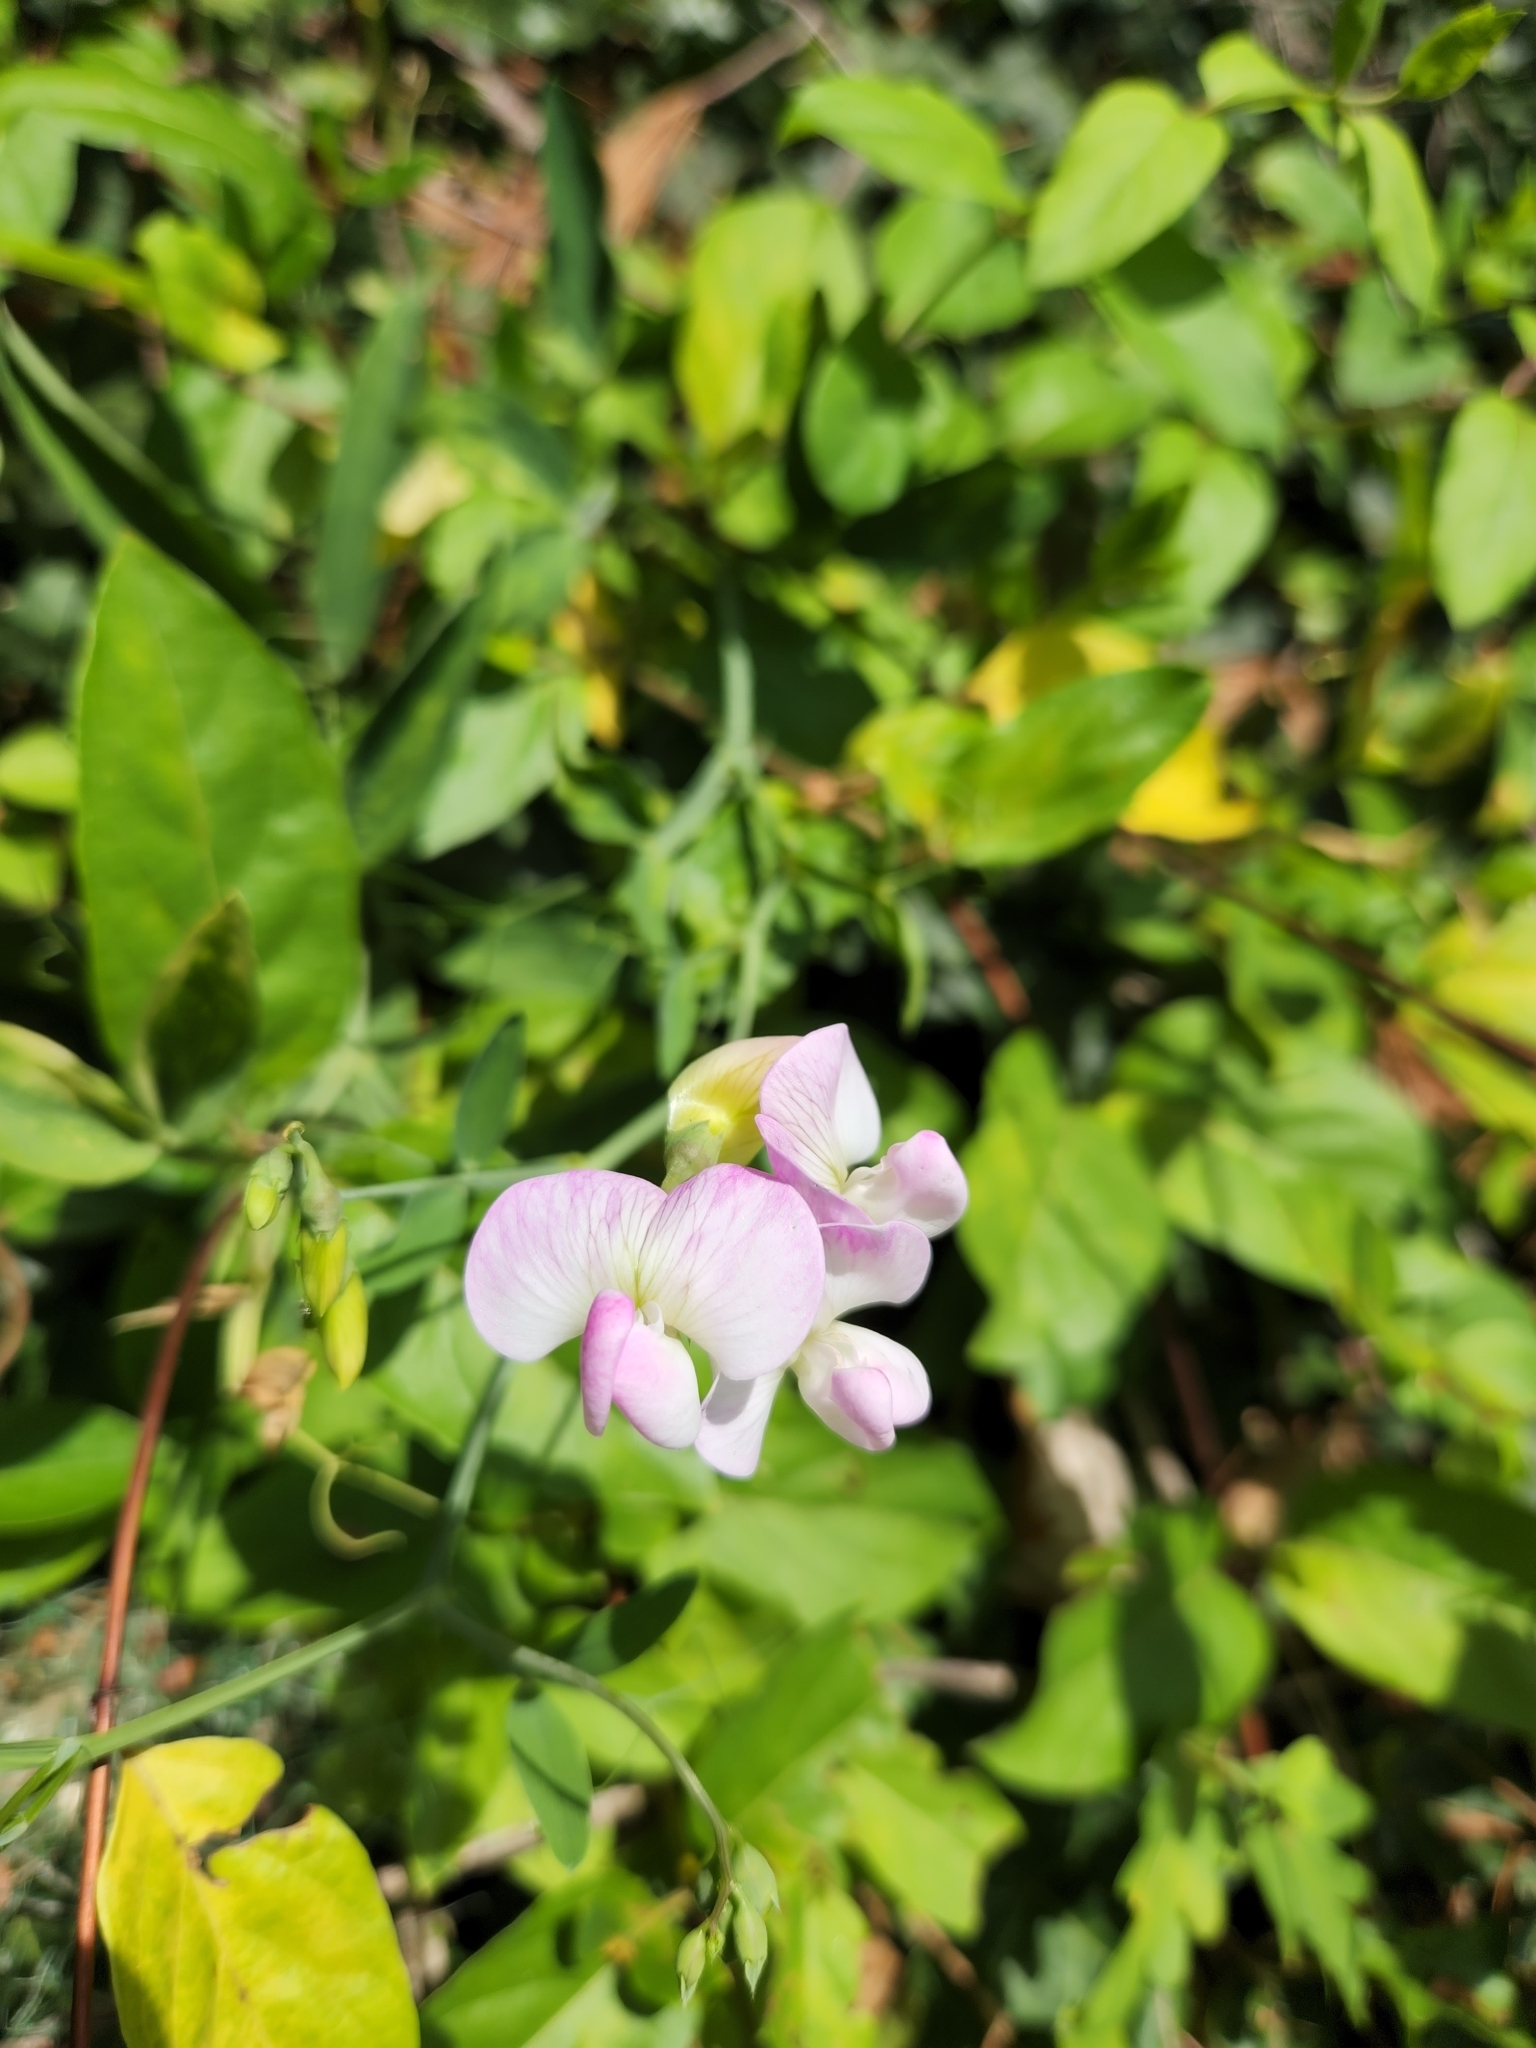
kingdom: Plantae
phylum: Tracheophyta
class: Magnoliopsida
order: Fabales
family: Fabaceae
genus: Lathyrus
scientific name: Lathyrus latifolius
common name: Perennial pea
